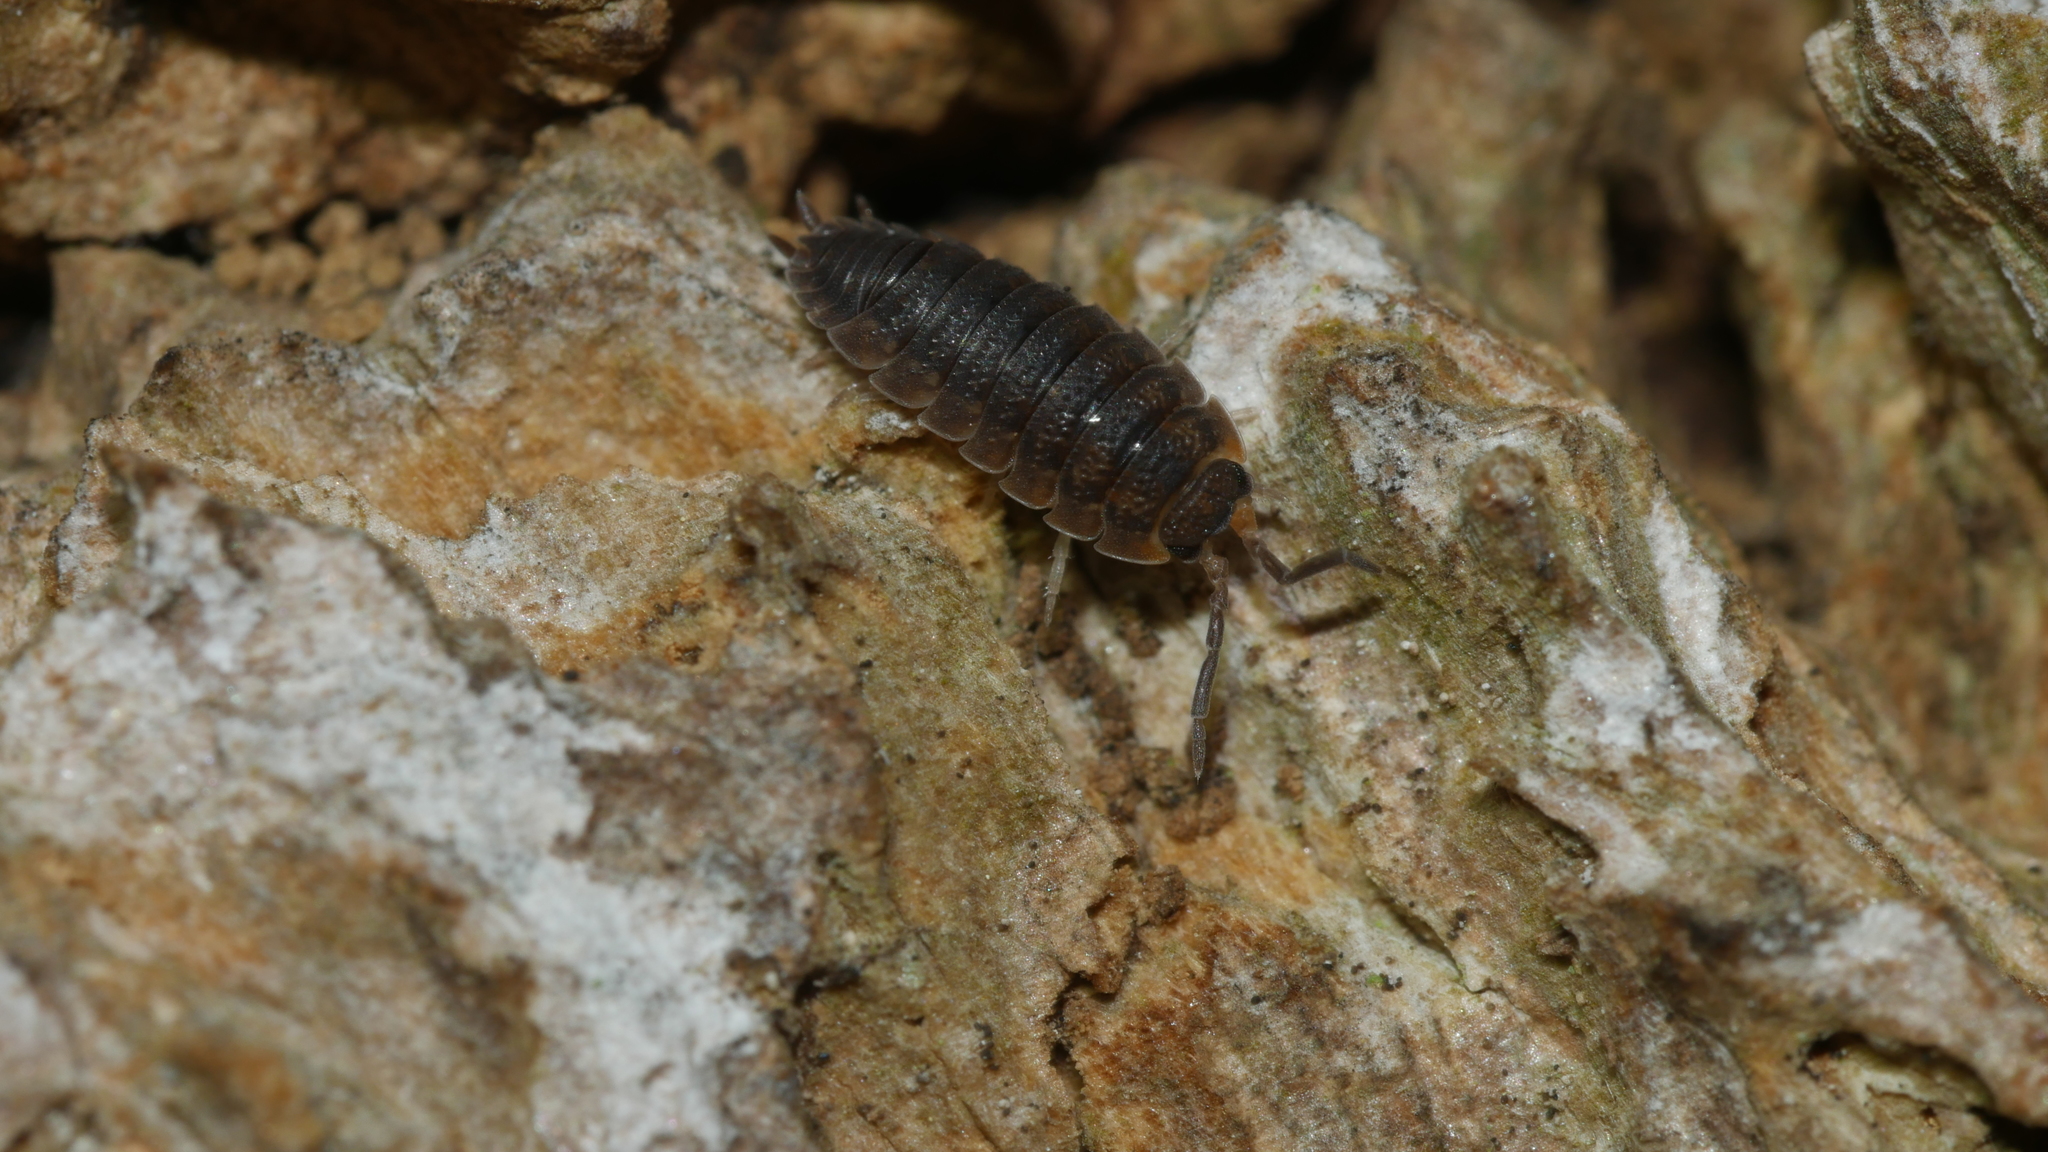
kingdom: Animalia
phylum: Arthropoda
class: Malacostraca
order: Isopoda
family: Porcellionidae
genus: Porcellio
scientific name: Porcellio scaber
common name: Common rough woodlouse
